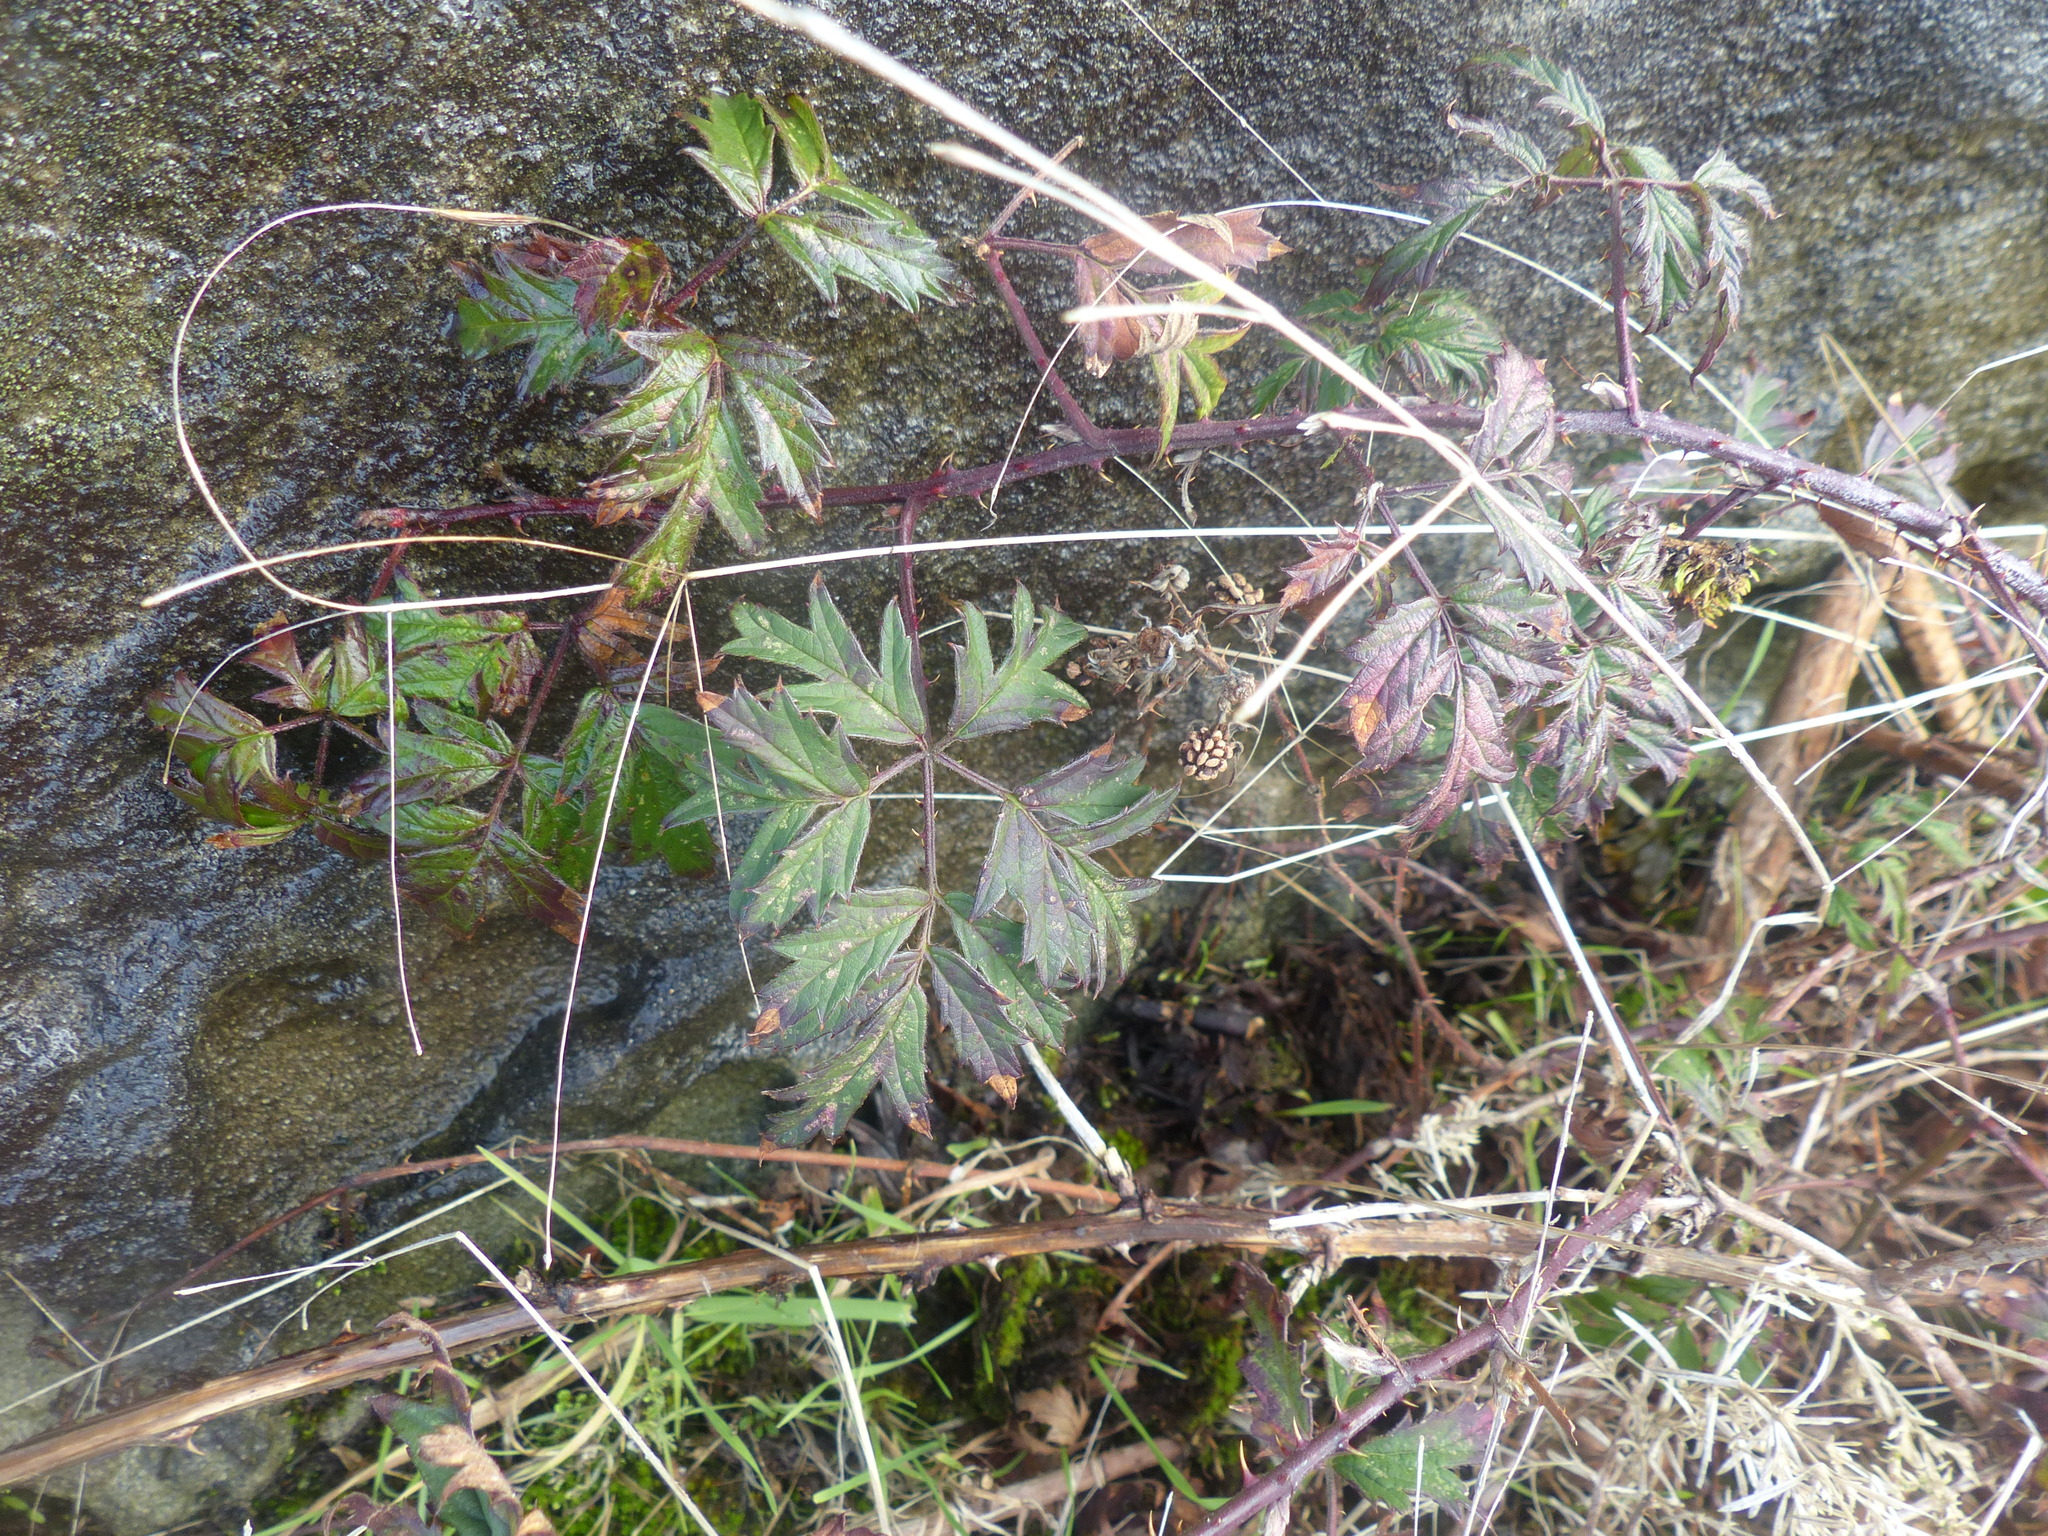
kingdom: Plantae
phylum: Tracheophyta
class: Magnoliopsida
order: Rosales
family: Rosaceae
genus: Rubus
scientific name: Rubus laciniatus
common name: Evergreen blackberry
